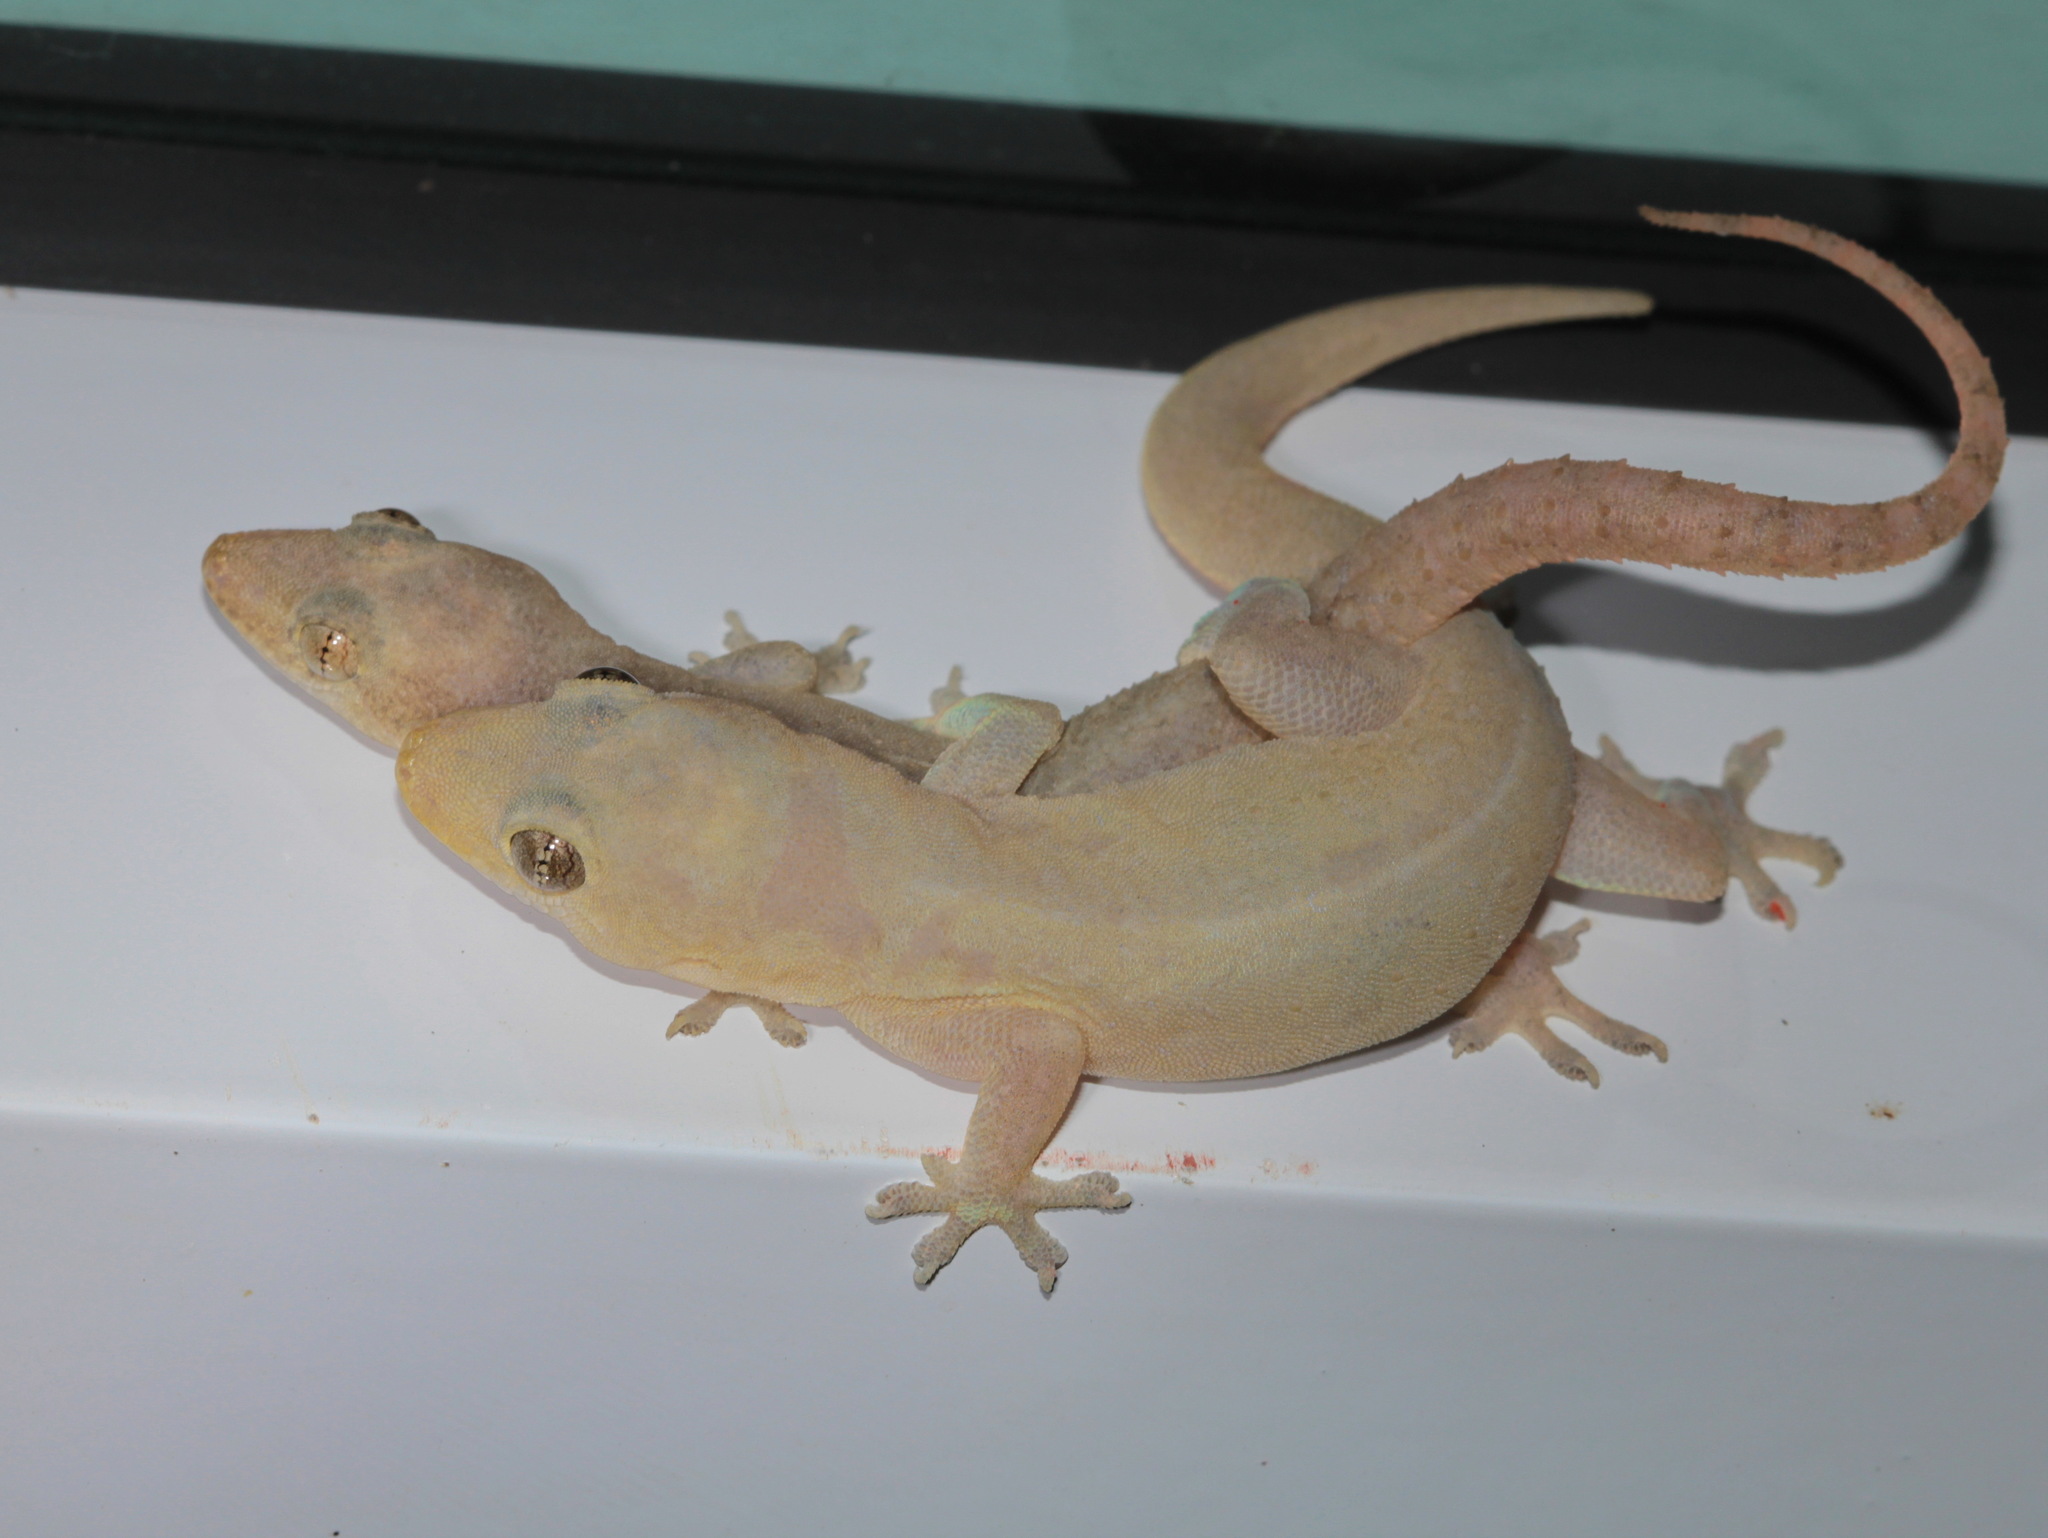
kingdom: Animalia
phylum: Chordata
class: Squamata
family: Gekkonidae
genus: Hemidactylus
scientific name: Hemidactylus frenatus
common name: Common house gecko
